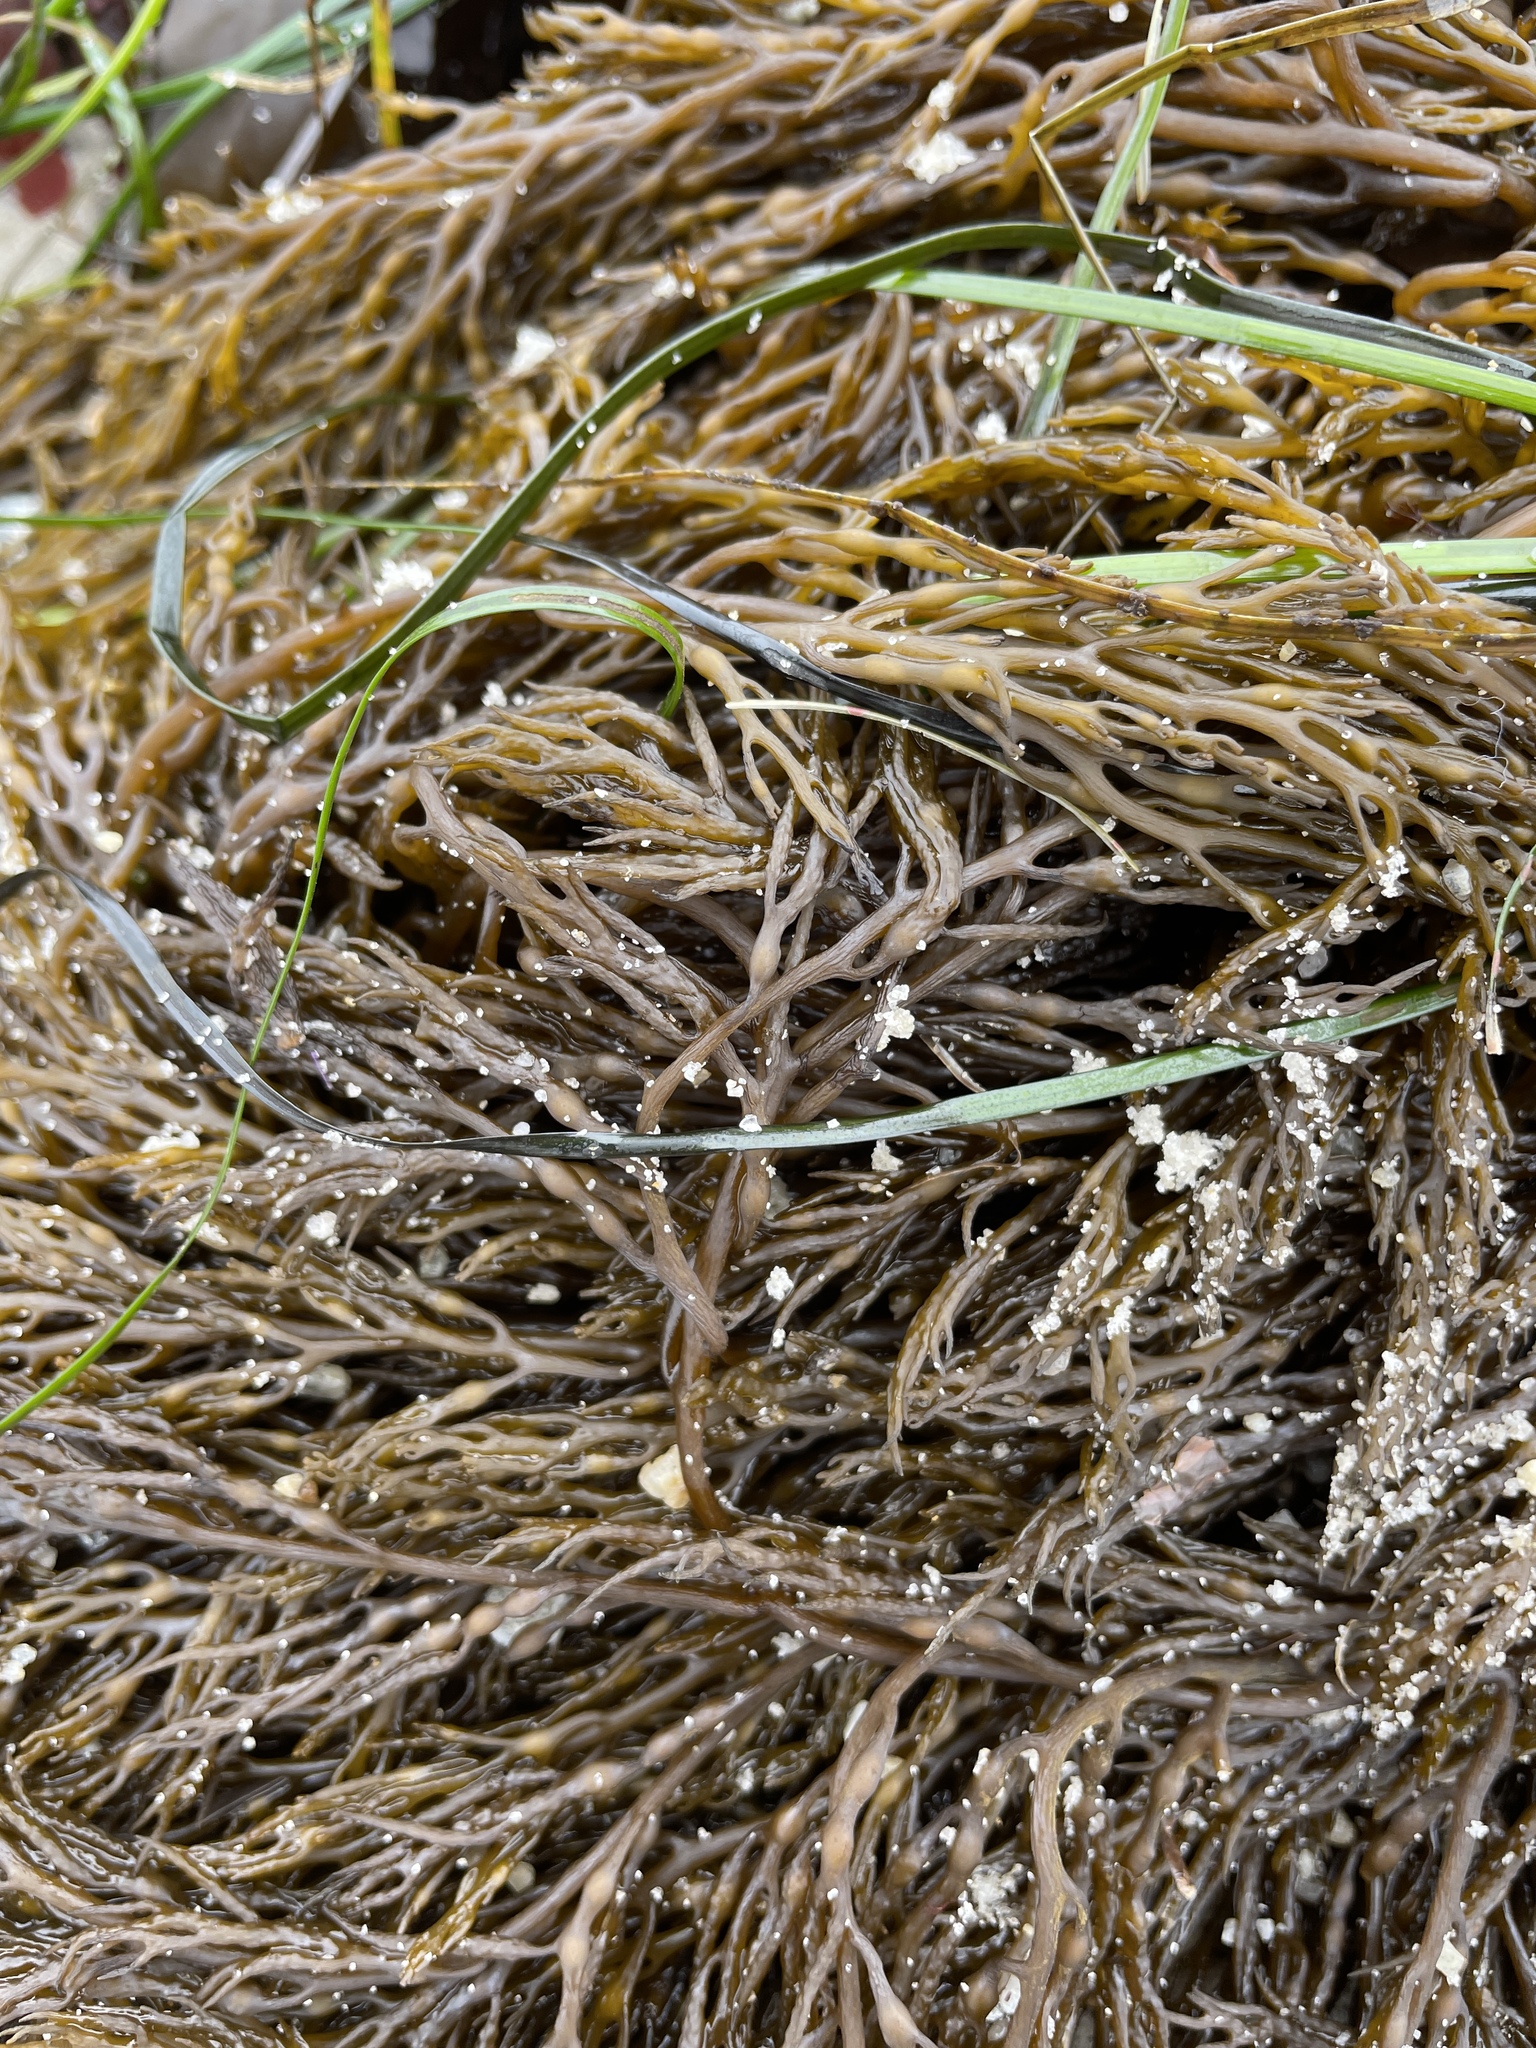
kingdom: Chromista
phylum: Ochrophyta
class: Phaeophyceae
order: Fucales
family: Sargassaceae
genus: Stephanocystis
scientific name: Stephanocystis
